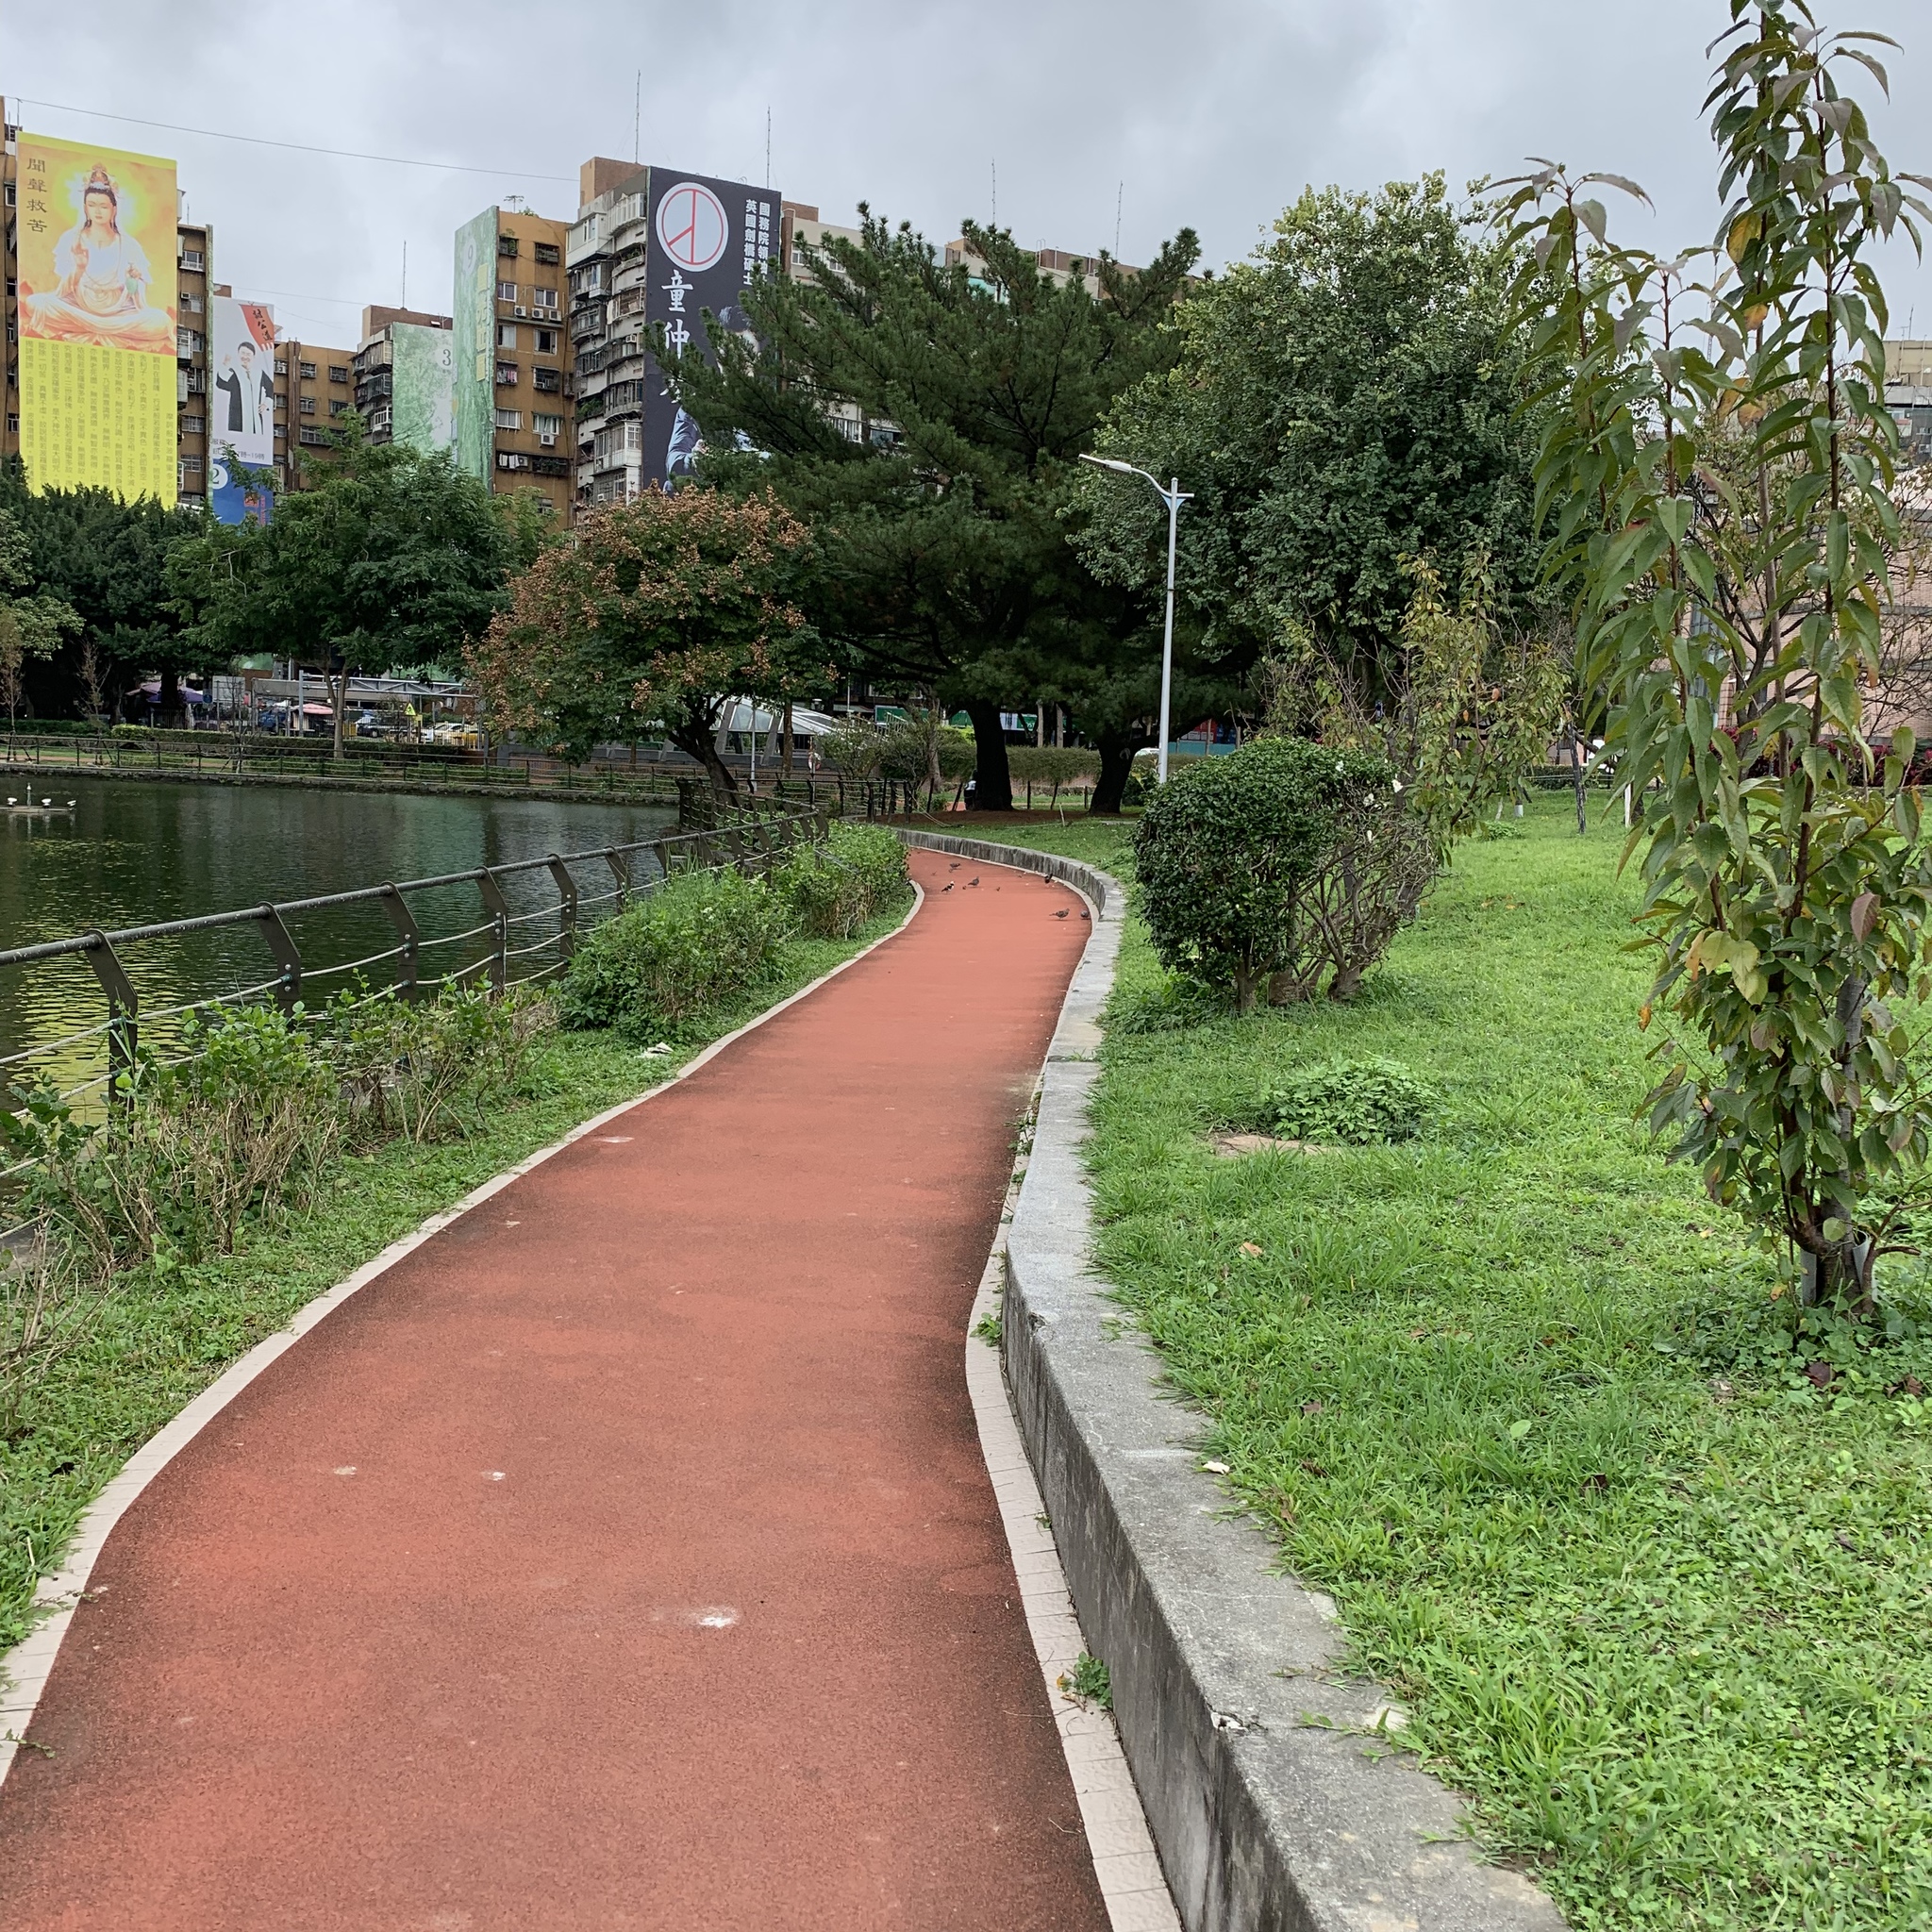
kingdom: Animalia
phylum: Chordata
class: Aves
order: Passeriformes
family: Sturnidae
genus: Gracupica
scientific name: Gracupica nigricollis
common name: Black-collared starling
